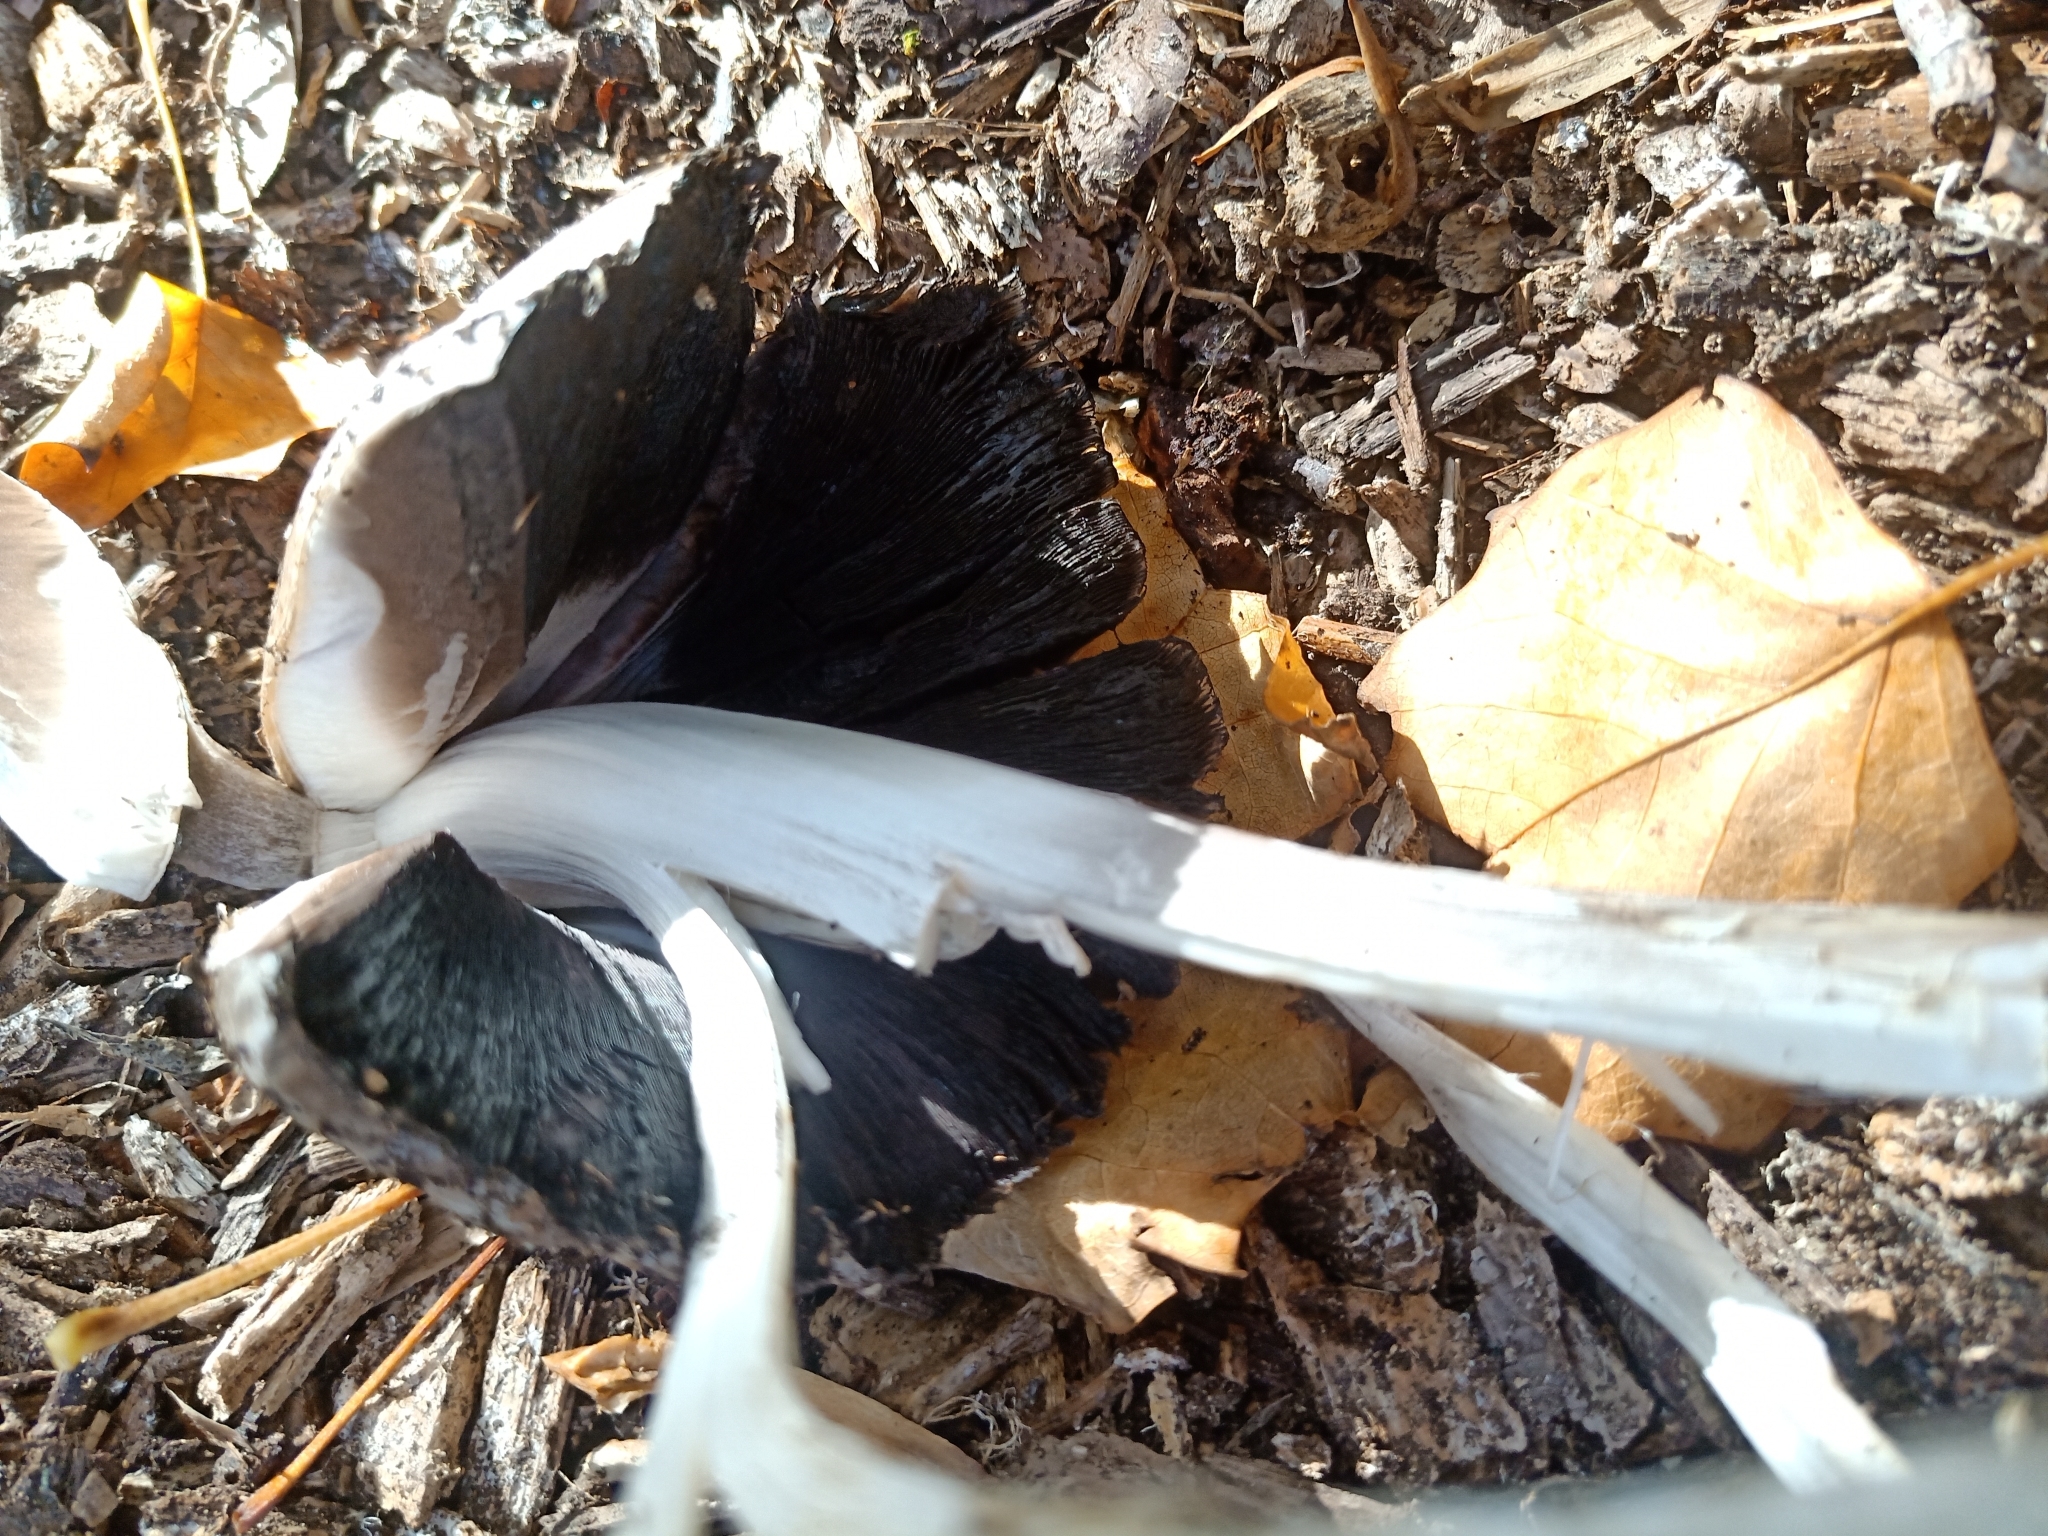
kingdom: Fungi
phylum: Basidiomycota
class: Agaricomycetes
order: Agaricales
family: Psathyrellaceae
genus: Coprinopsis
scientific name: Coprinopsis atramentaria
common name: Common ink-cap
